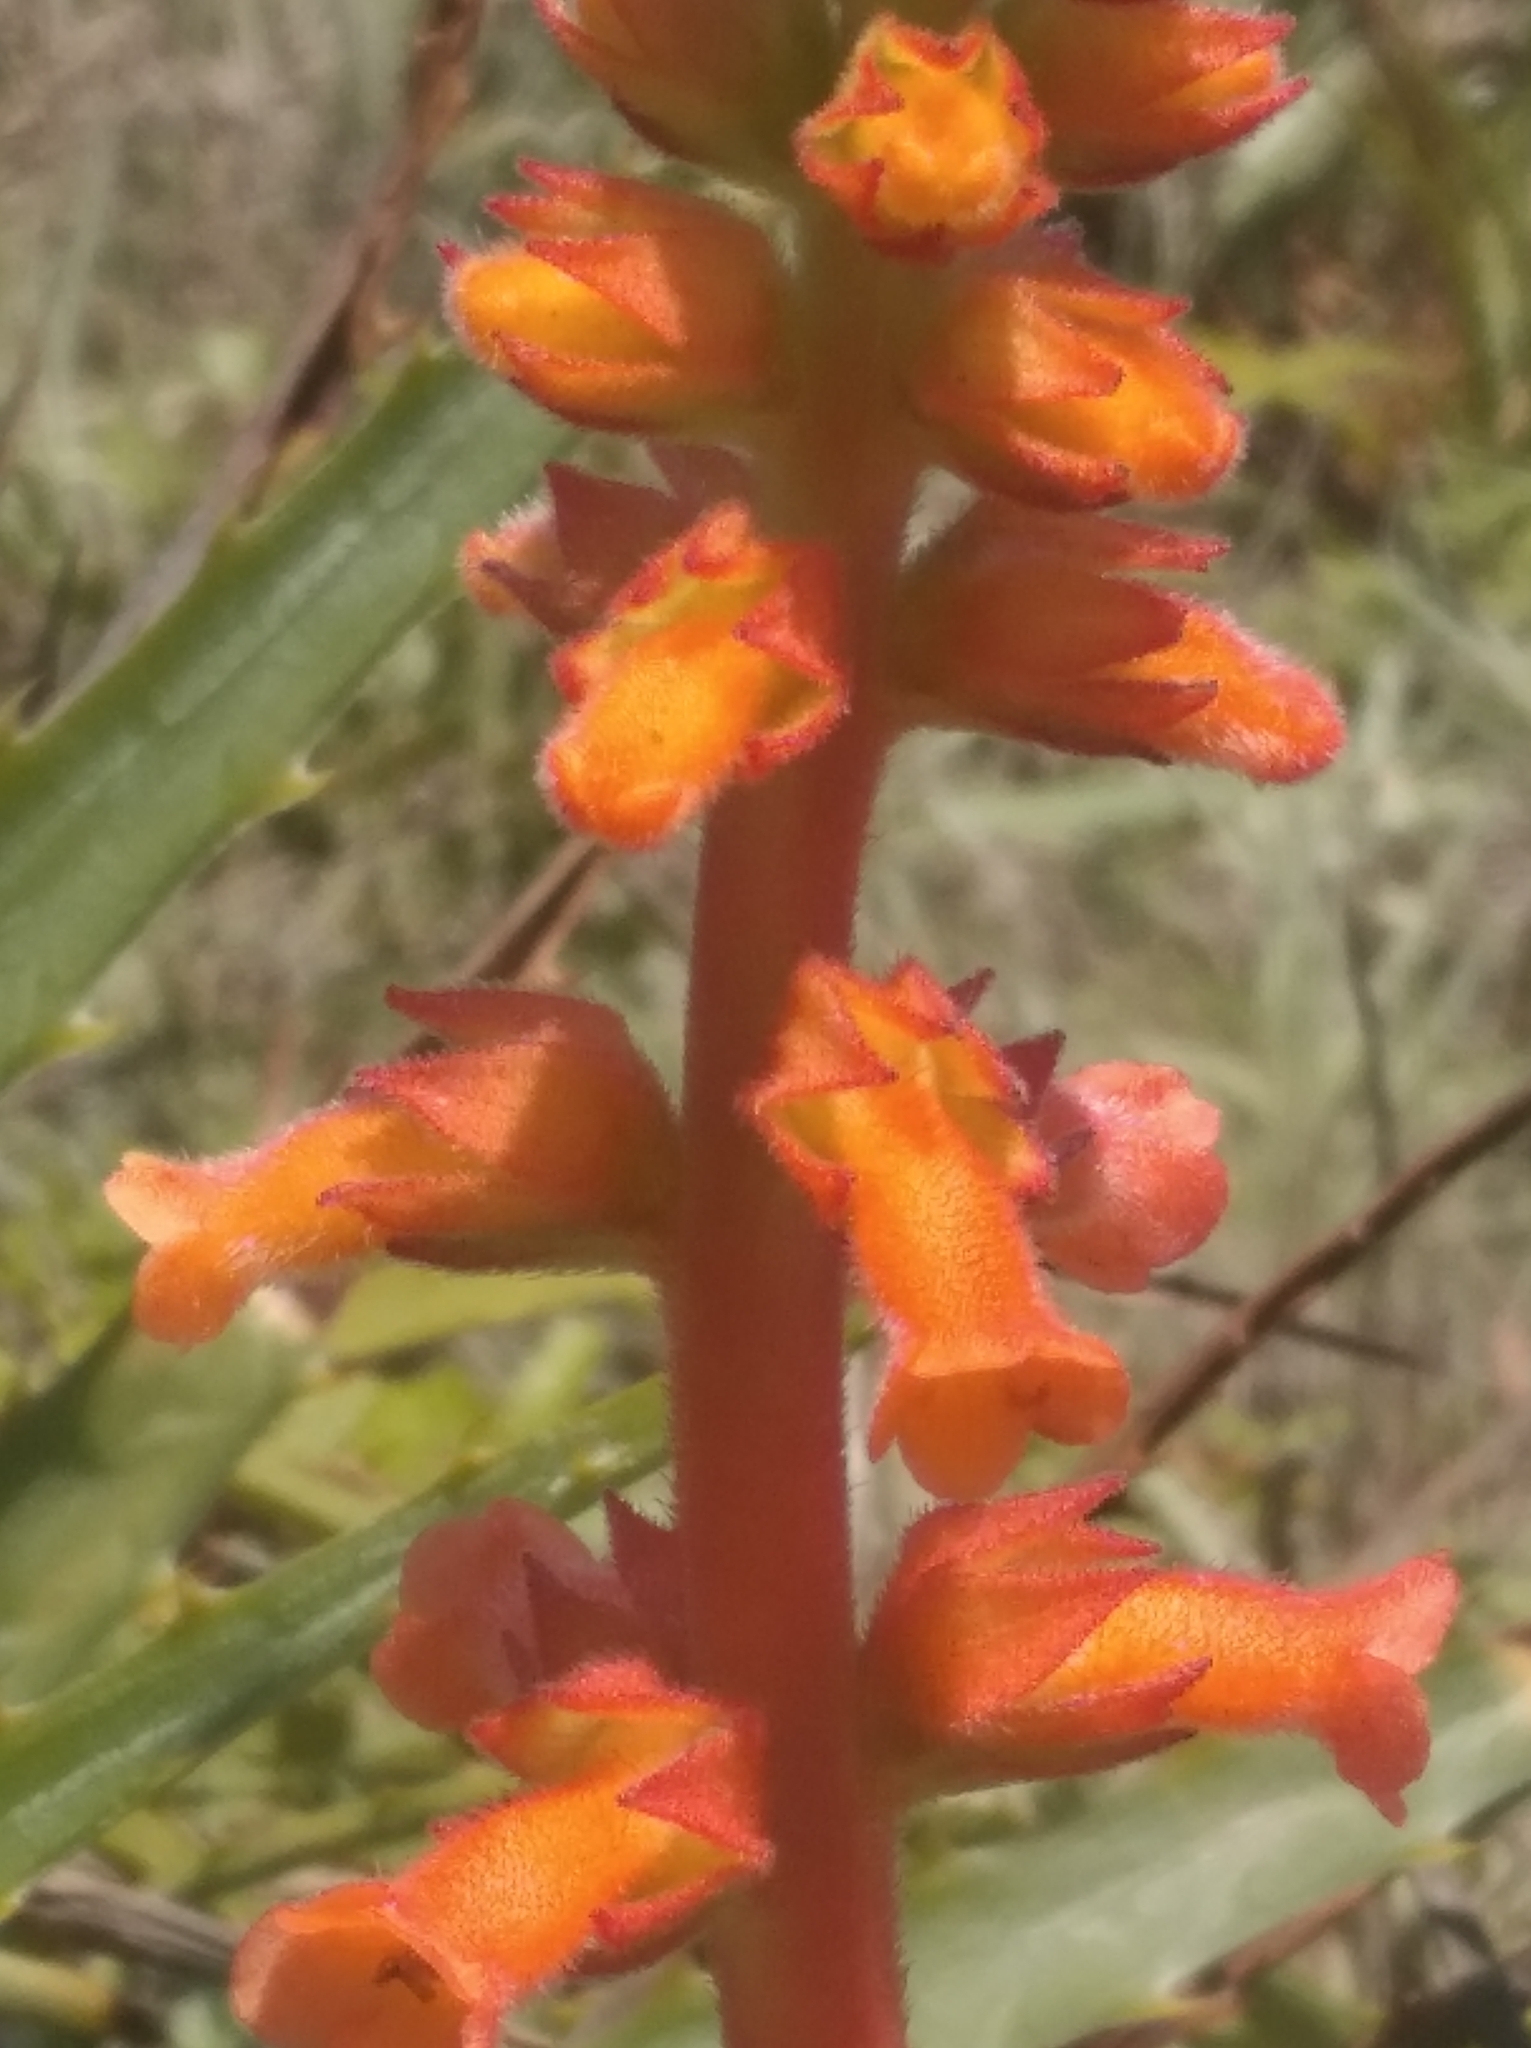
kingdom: Plantae
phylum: Tracheophyta
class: Magnoliopsida
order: Lamiales
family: Gesneriaceae
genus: Sinningia
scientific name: Sinningia allagophylla
